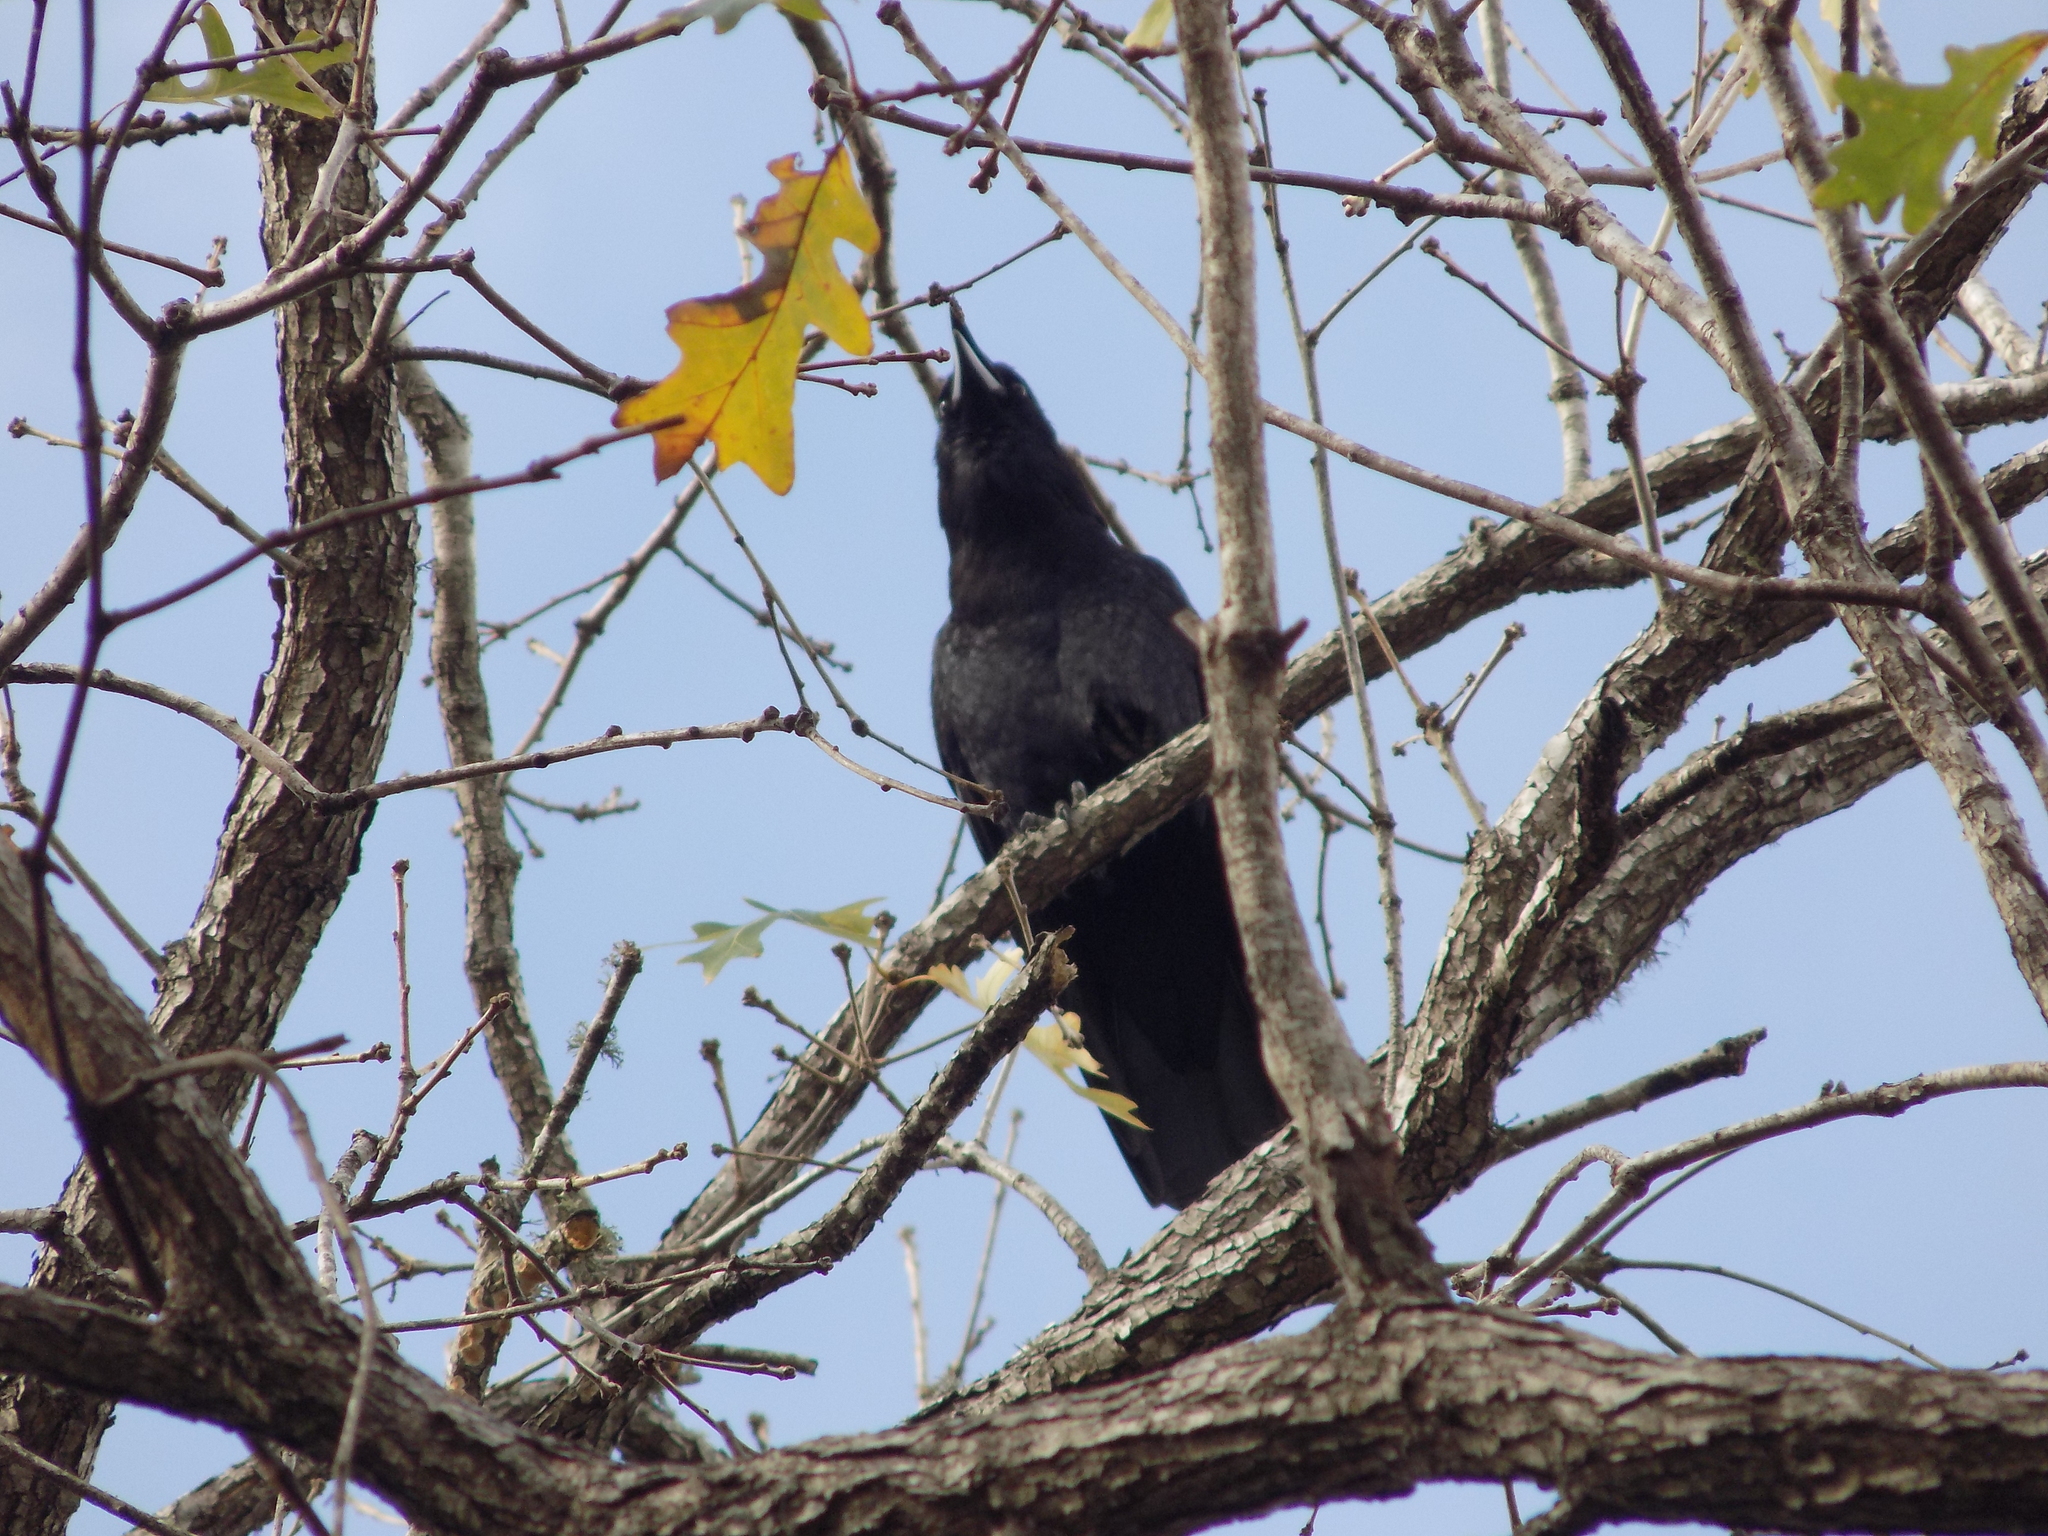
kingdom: Animalia
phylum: Chordata
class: Aves
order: Passeriformes
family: Corvidae
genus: Corvus
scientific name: Corvus brachyrhynchos
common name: American crow
